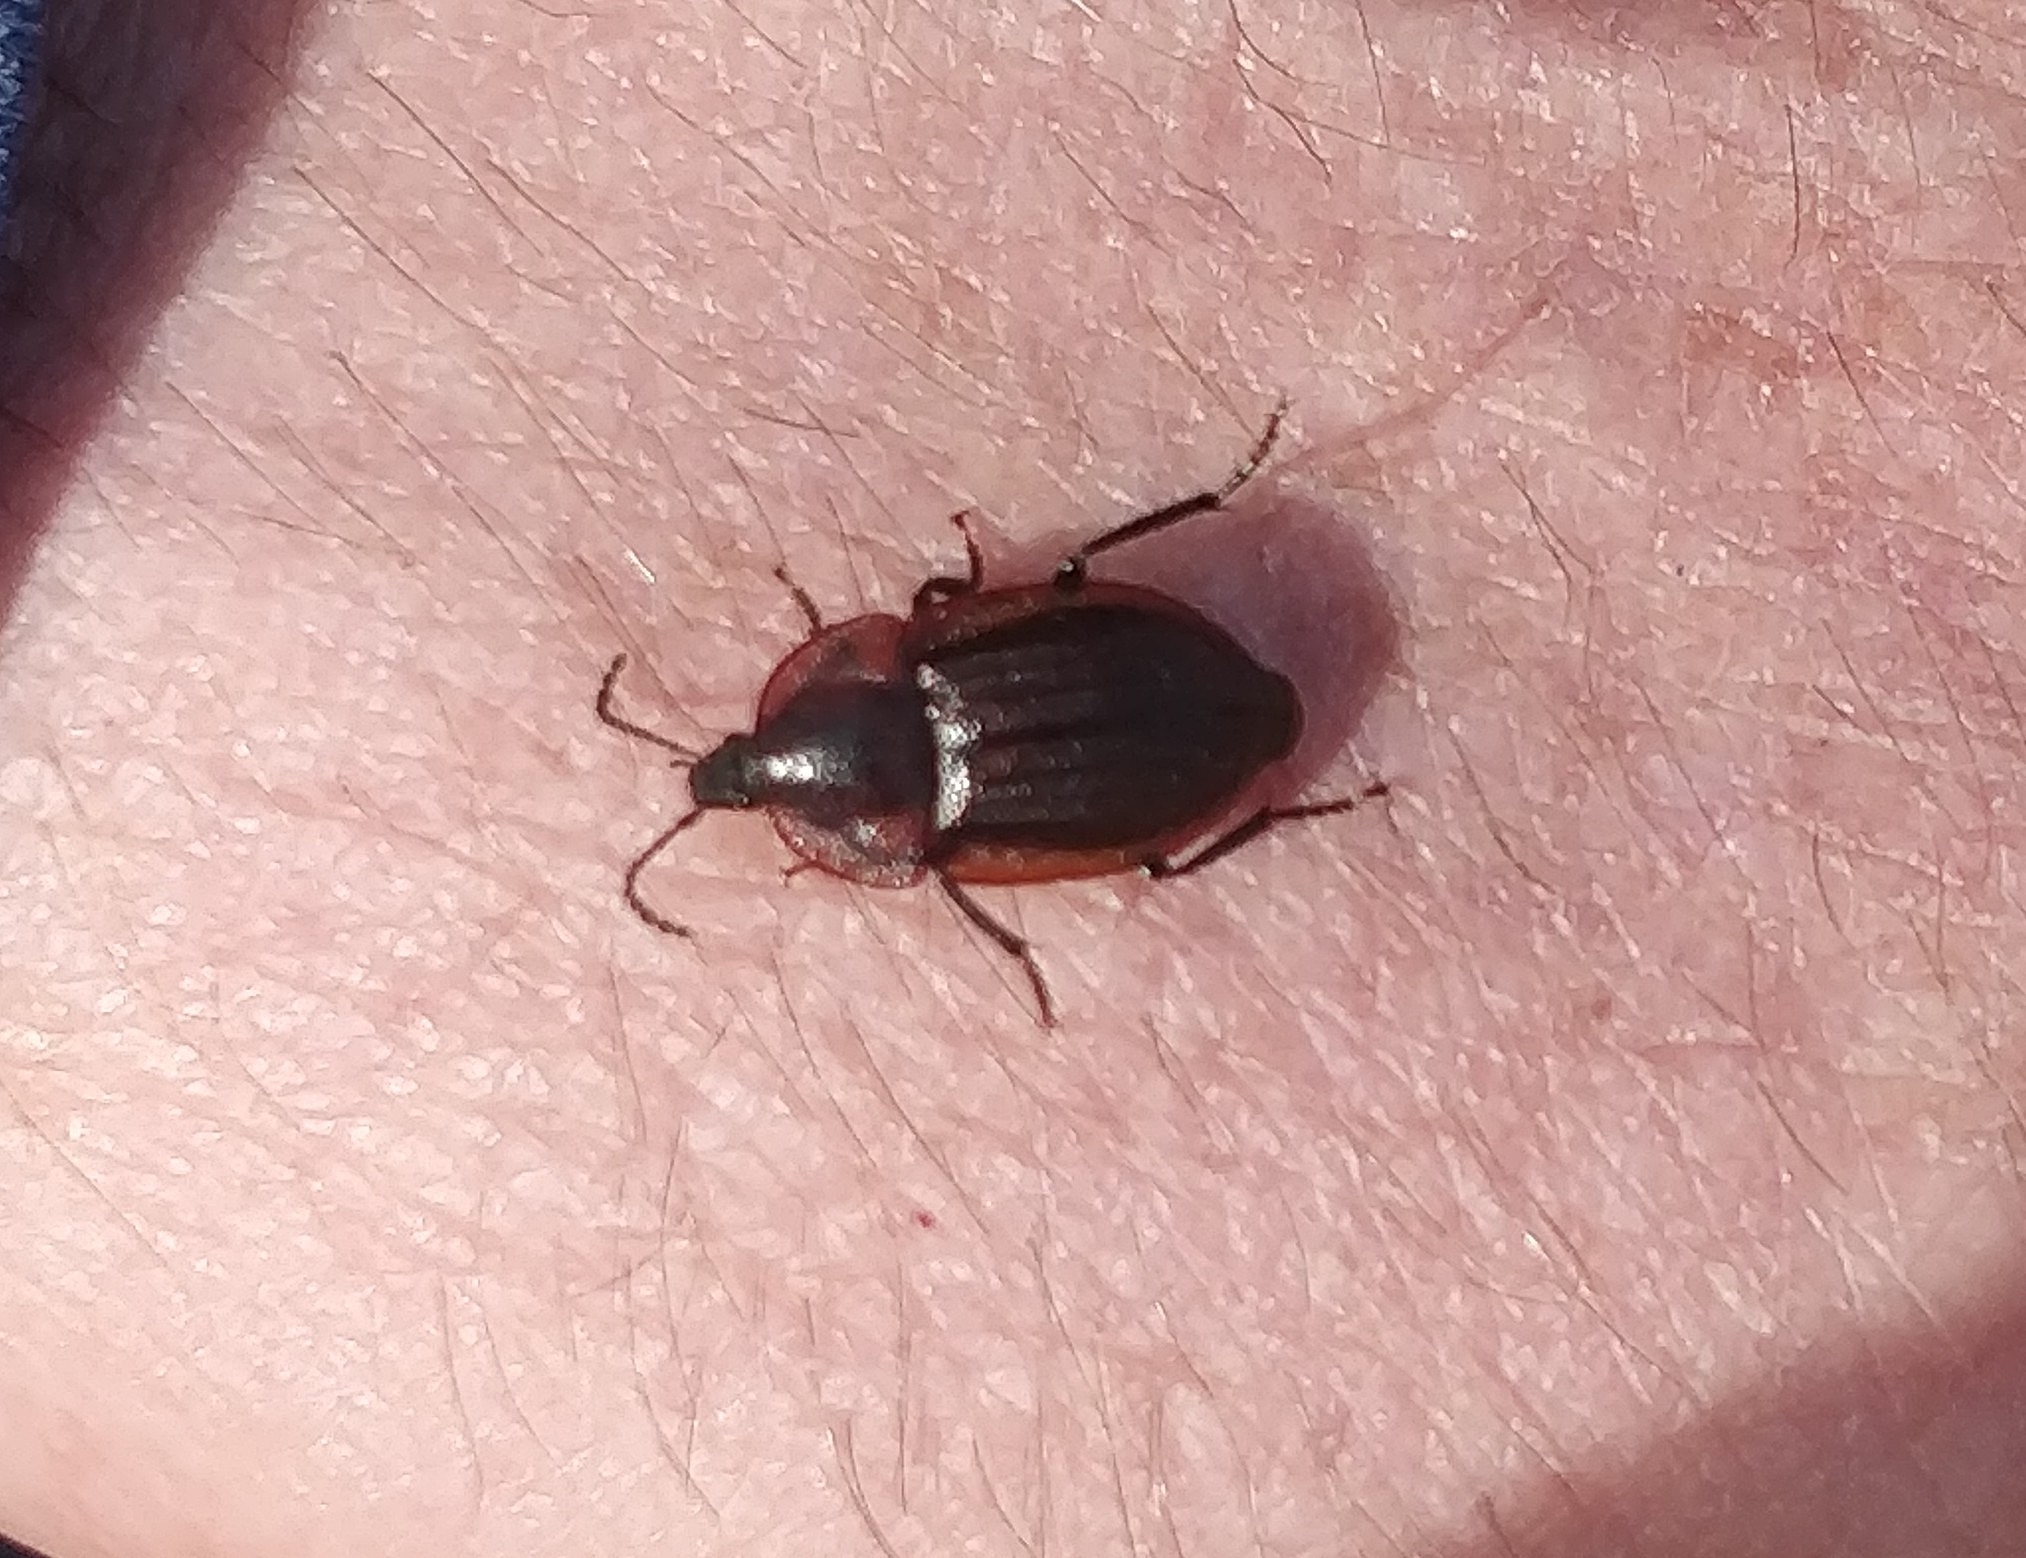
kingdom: Animalia
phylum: Arthropoda
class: Insecta
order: Coleoptera
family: Staphylinidae
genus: Silpha
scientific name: Silpha atrata
